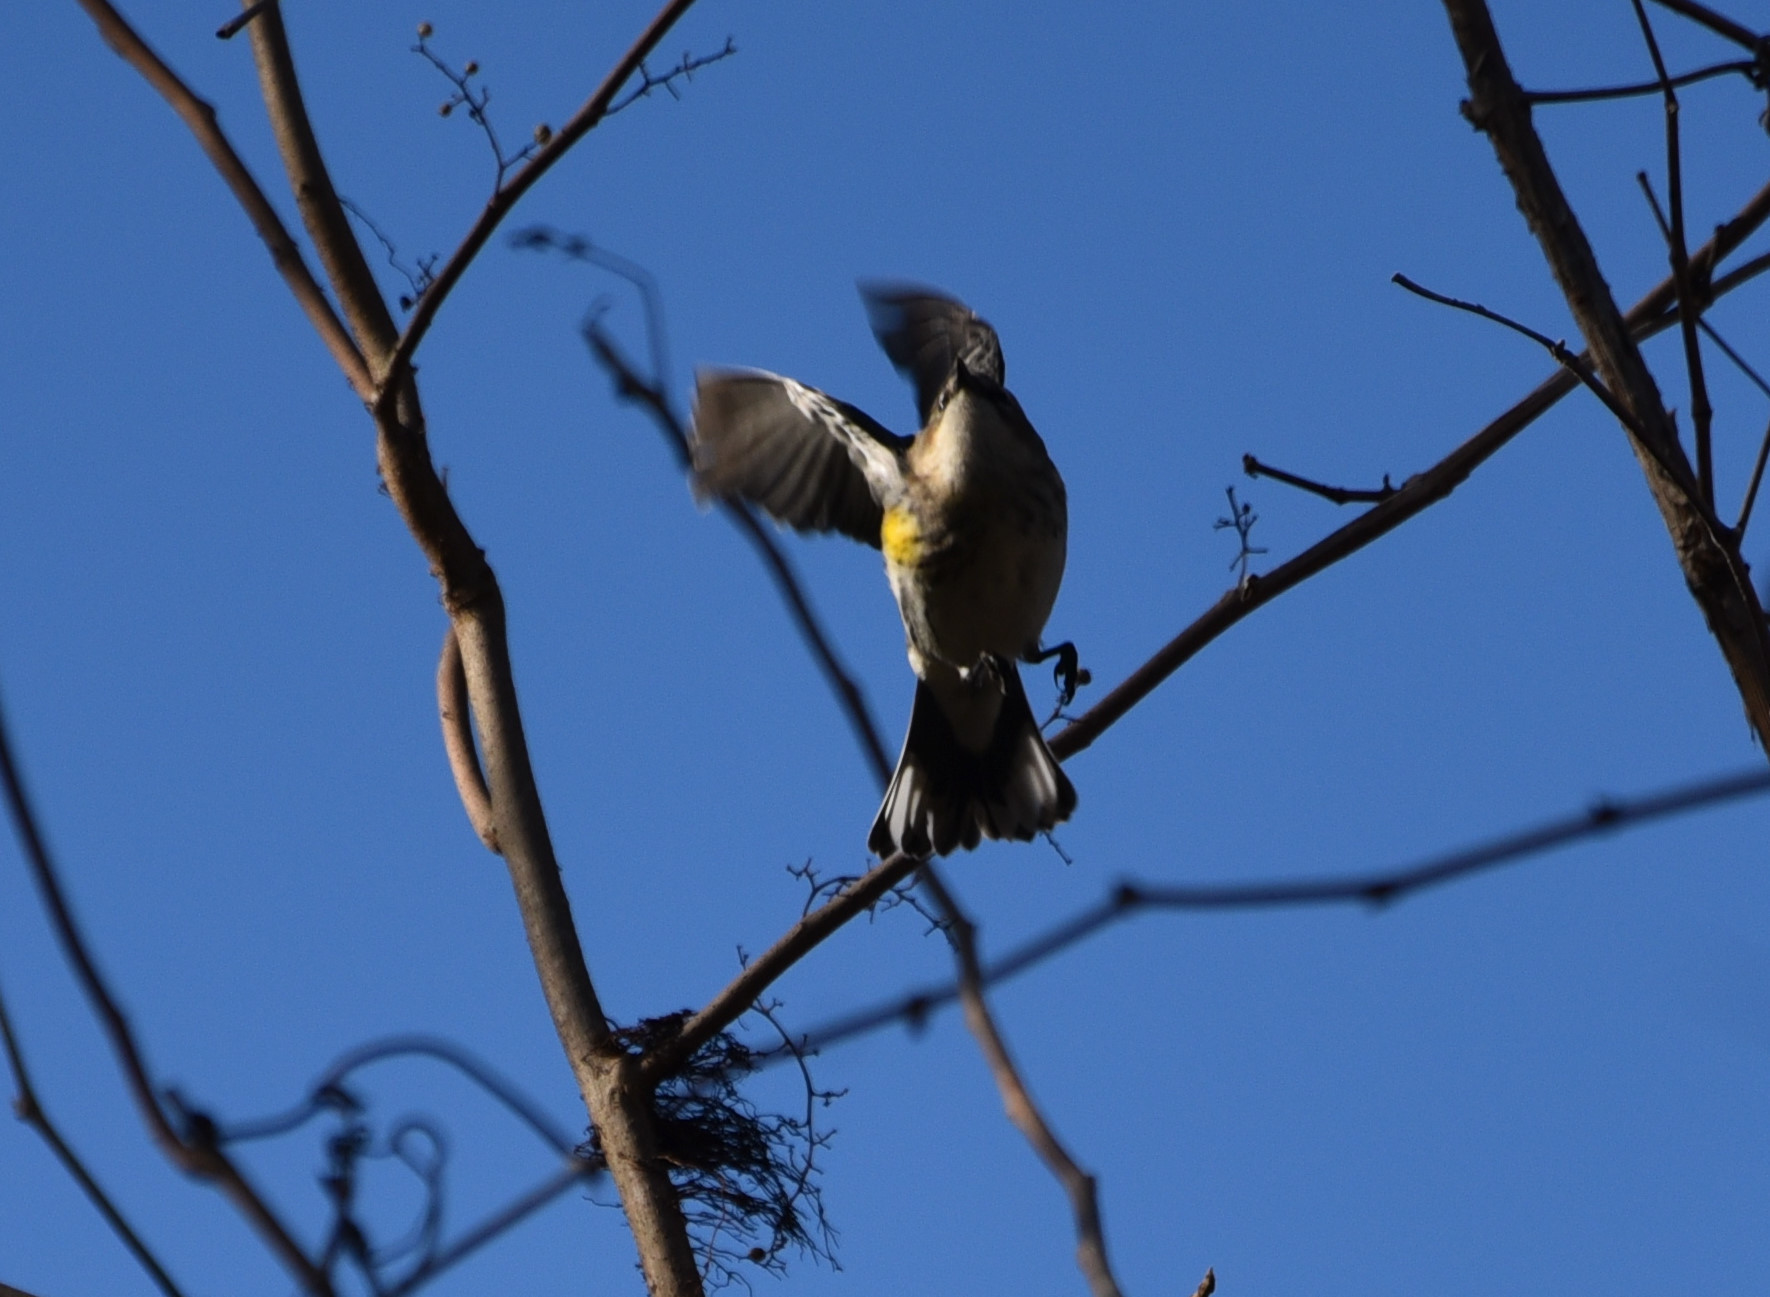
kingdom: Animalia
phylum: Chordata
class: Aves
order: Passeriformes
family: Parulidae
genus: Setophaga
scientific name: Setophaga coronata
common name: Myrtle warbler
